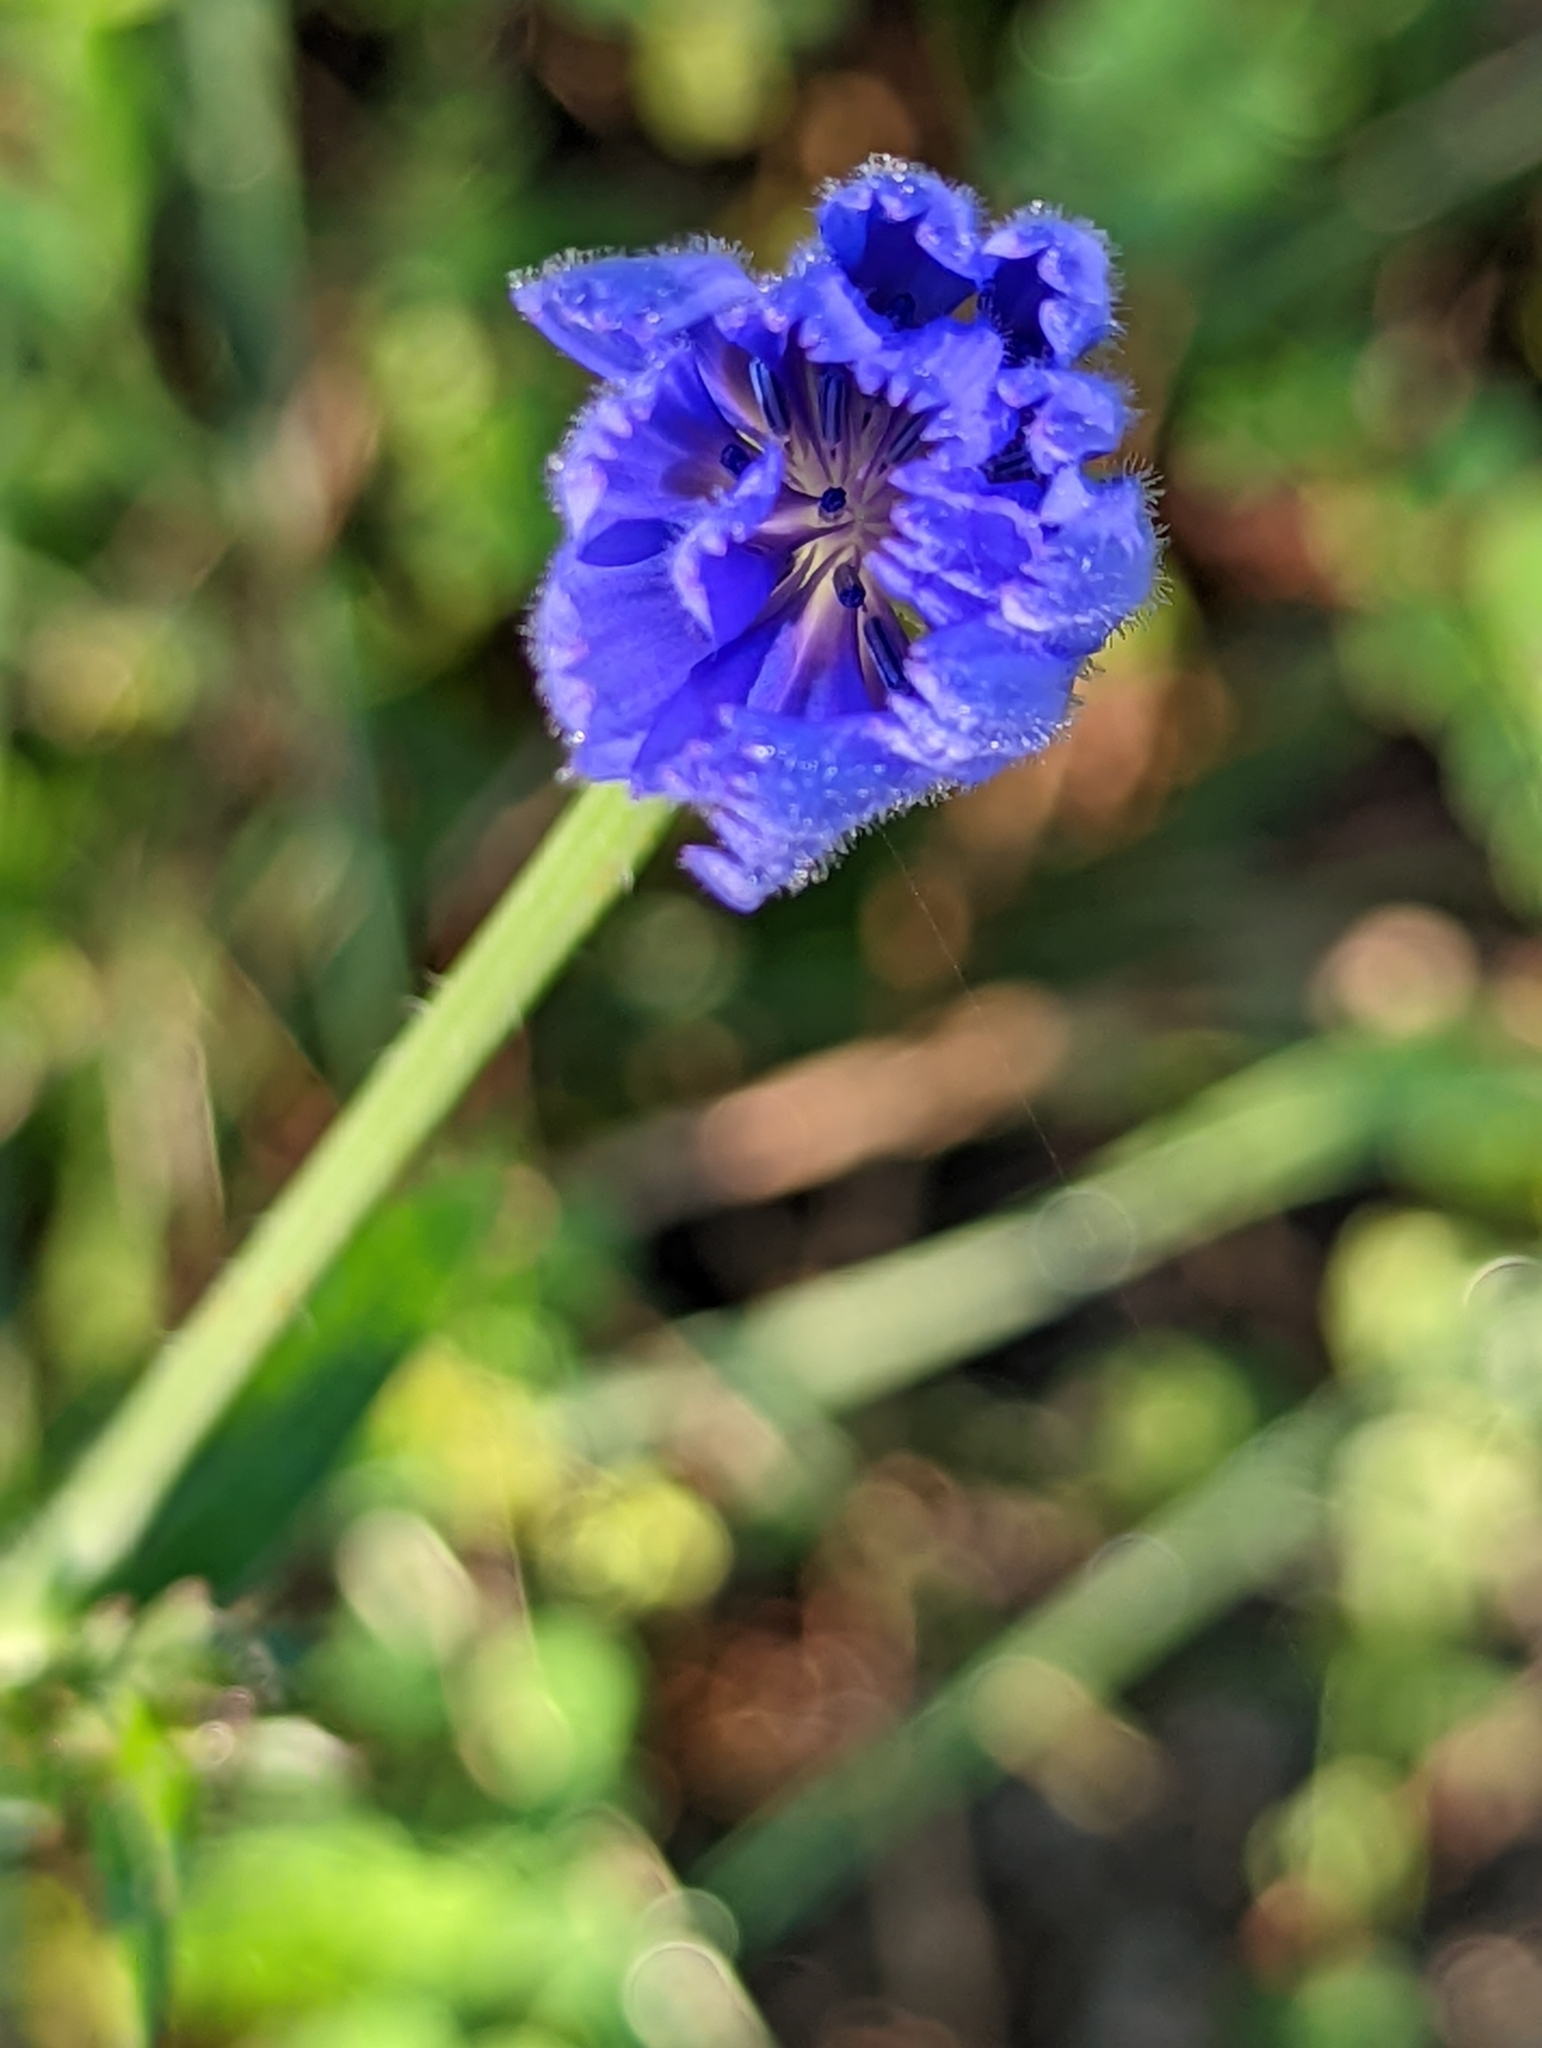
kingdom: Plantae
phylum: Tracheophyta
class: Magnoliopsida
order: Asterales
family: Asteraceae
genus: Cichorium
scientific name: Cichorium intybus
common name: Chicory
